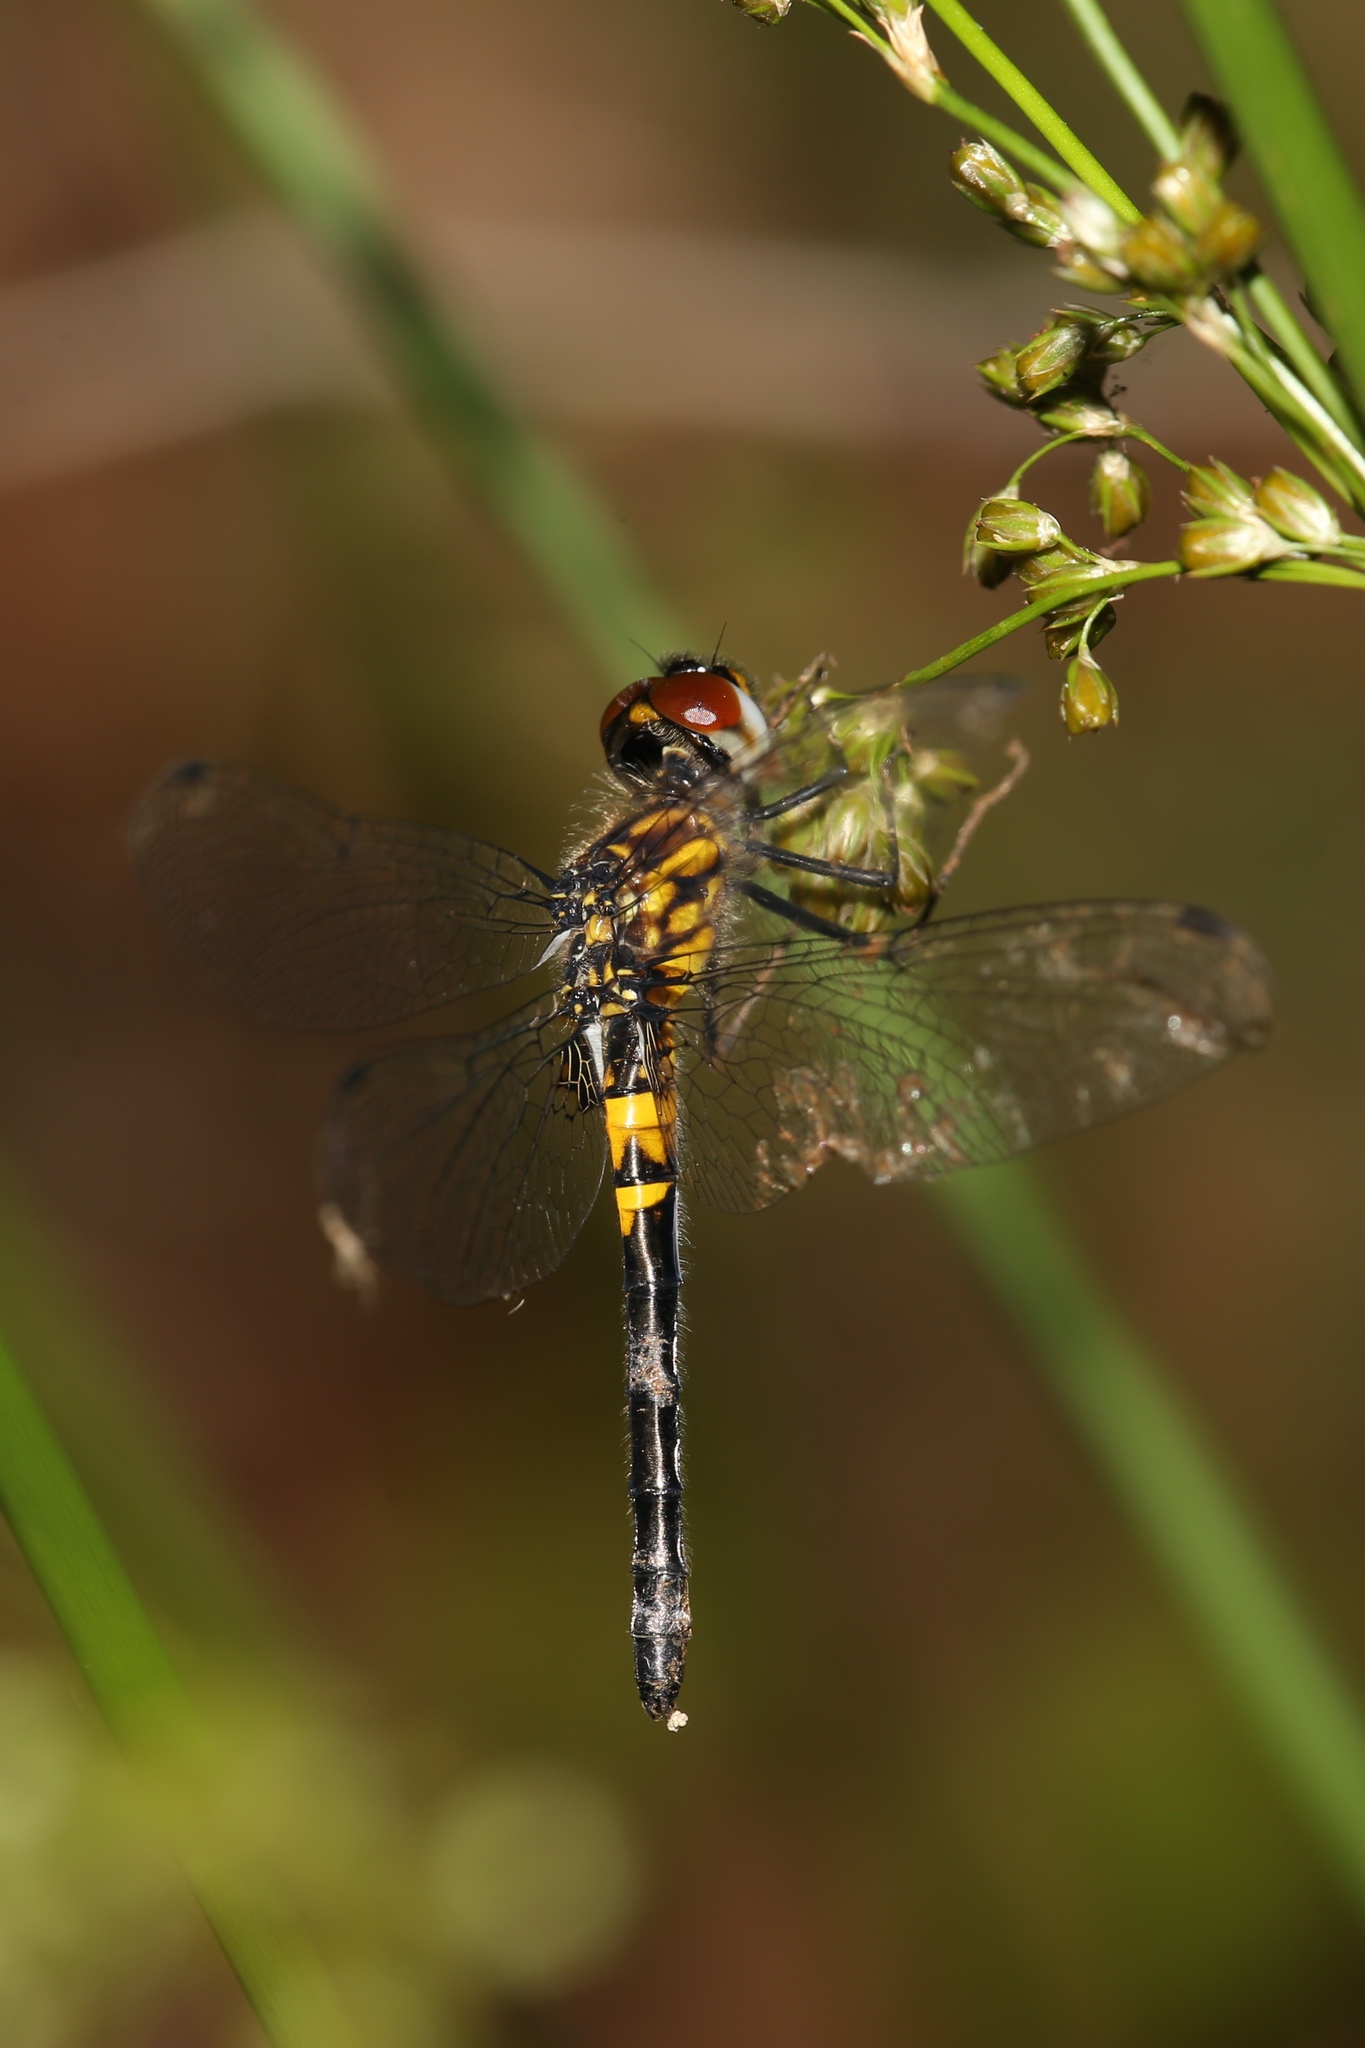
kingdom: Animalia
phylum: Arthropoda
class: Insecta
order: Odonata
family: Libellulidae
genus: Celithemis
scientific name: Celithemis verna
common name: Double-ringed pennant
